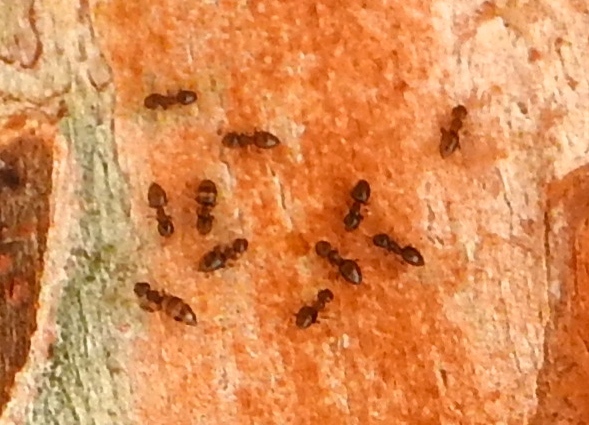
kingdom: Animalia
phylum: Arthropoda
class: Insecta
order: Hymenoptera
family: Formicidae
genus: Brachymyrmex
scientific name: Brachymyrmex
